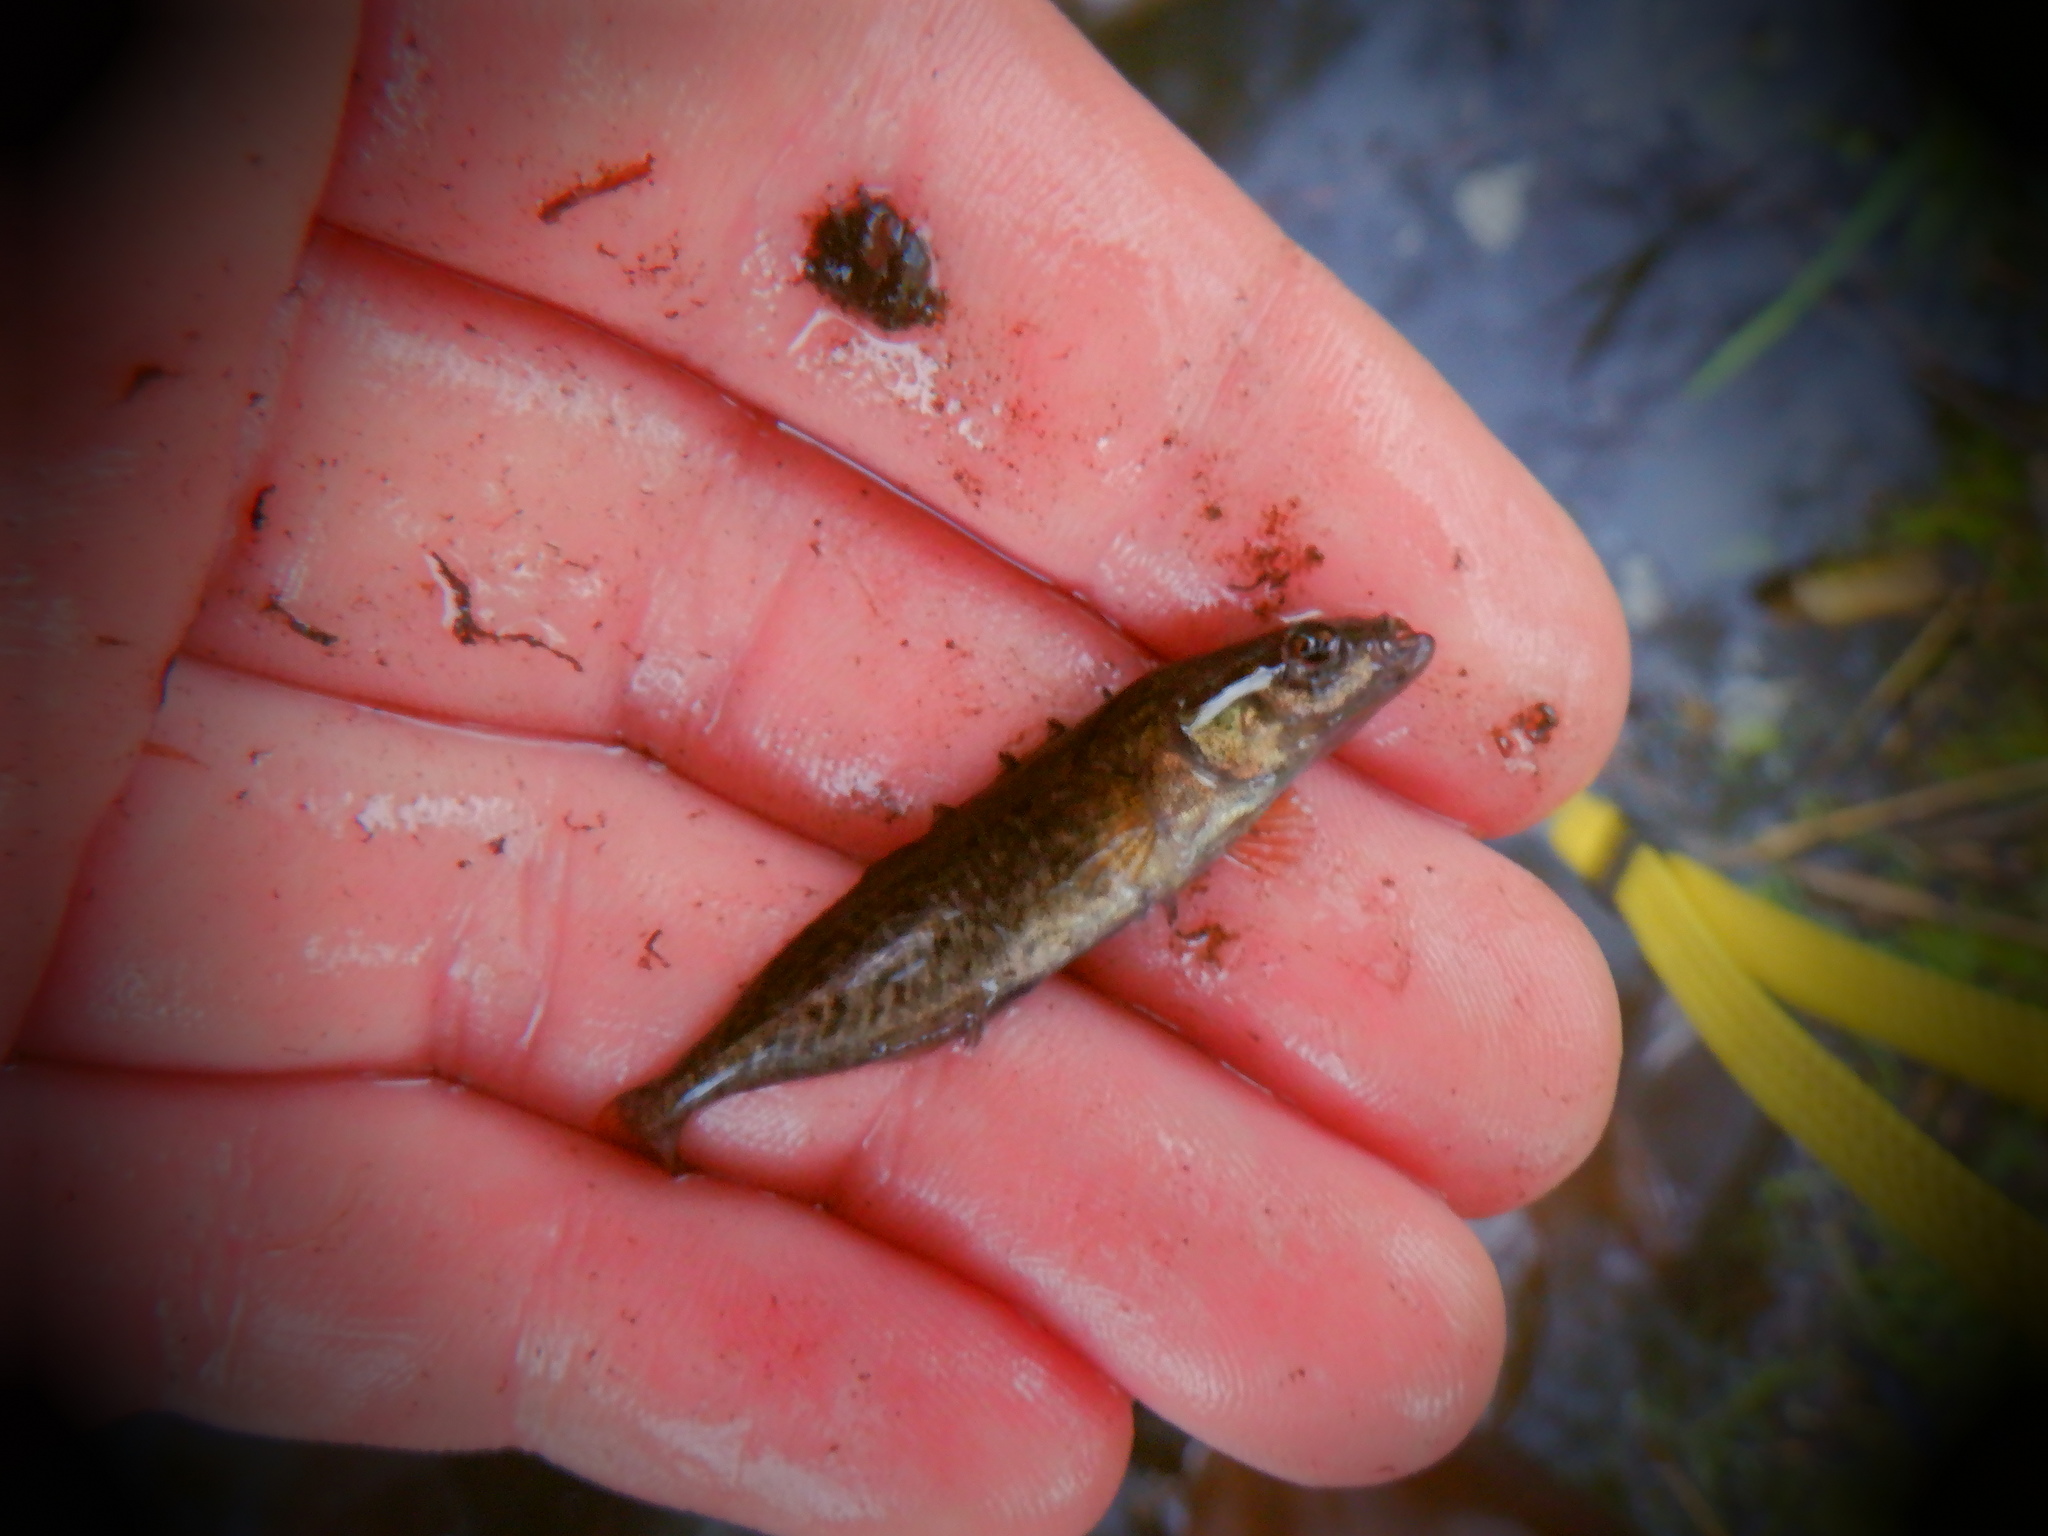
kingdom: Animalia
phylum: Chordata
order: Gasterosteiformes
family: Gasterosteidae
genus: Culaea
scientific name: Culaea inconstans
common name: Brook stickleback
